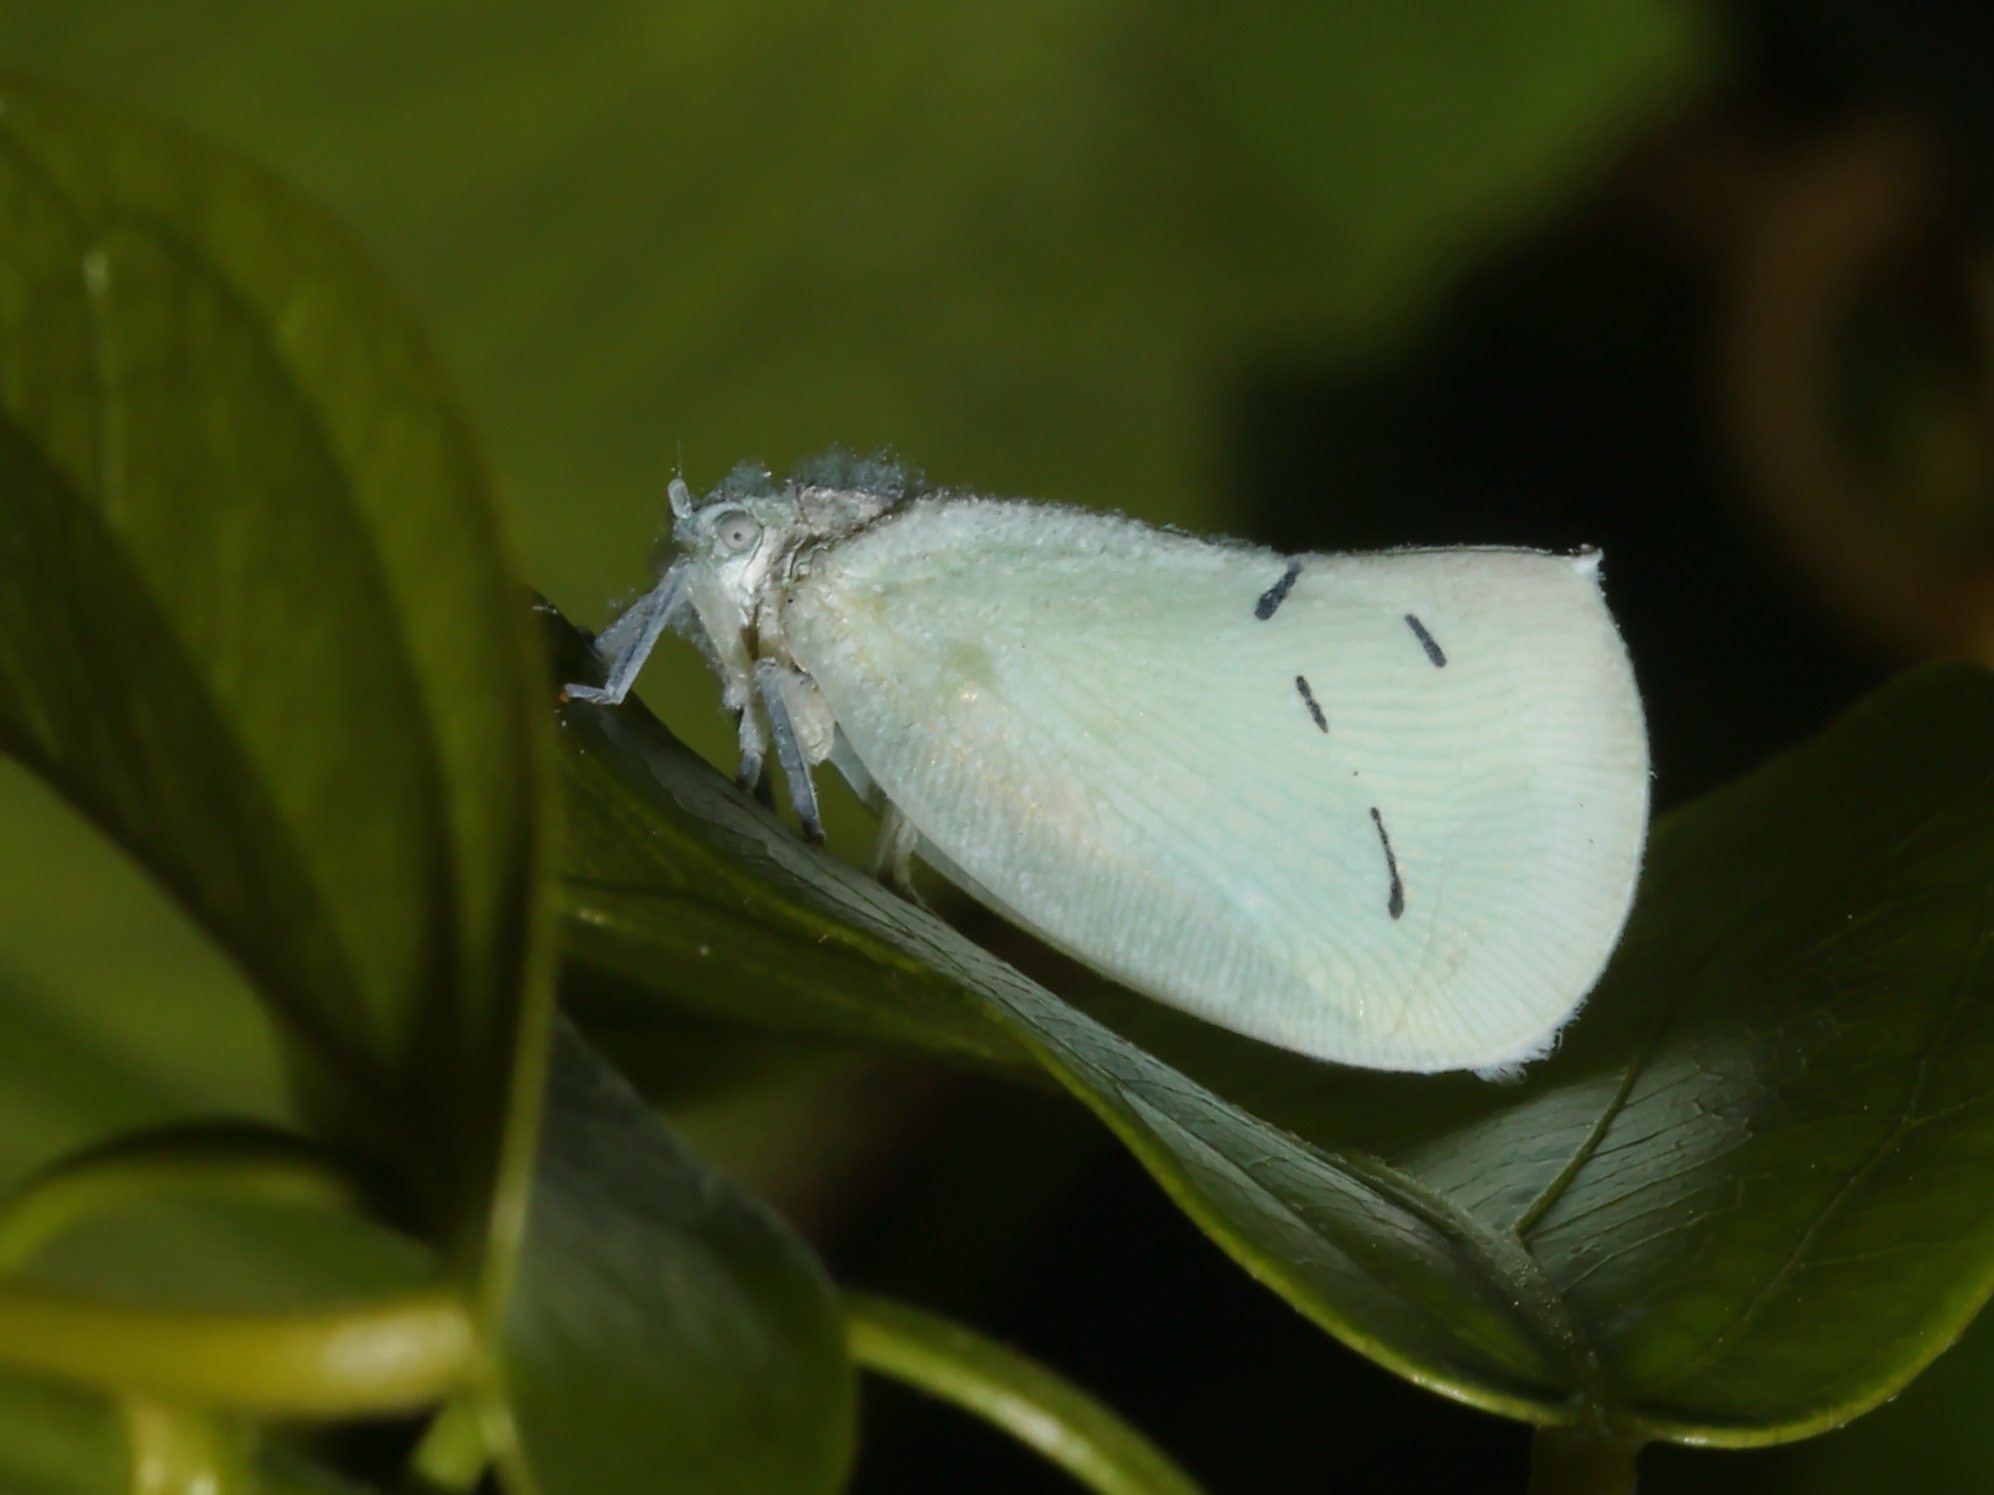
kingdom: Animalia
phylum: Arthropoda
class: Insecta
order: Hemiptera
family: Flatidae
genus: Cerynia
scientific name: Cerynia maria
